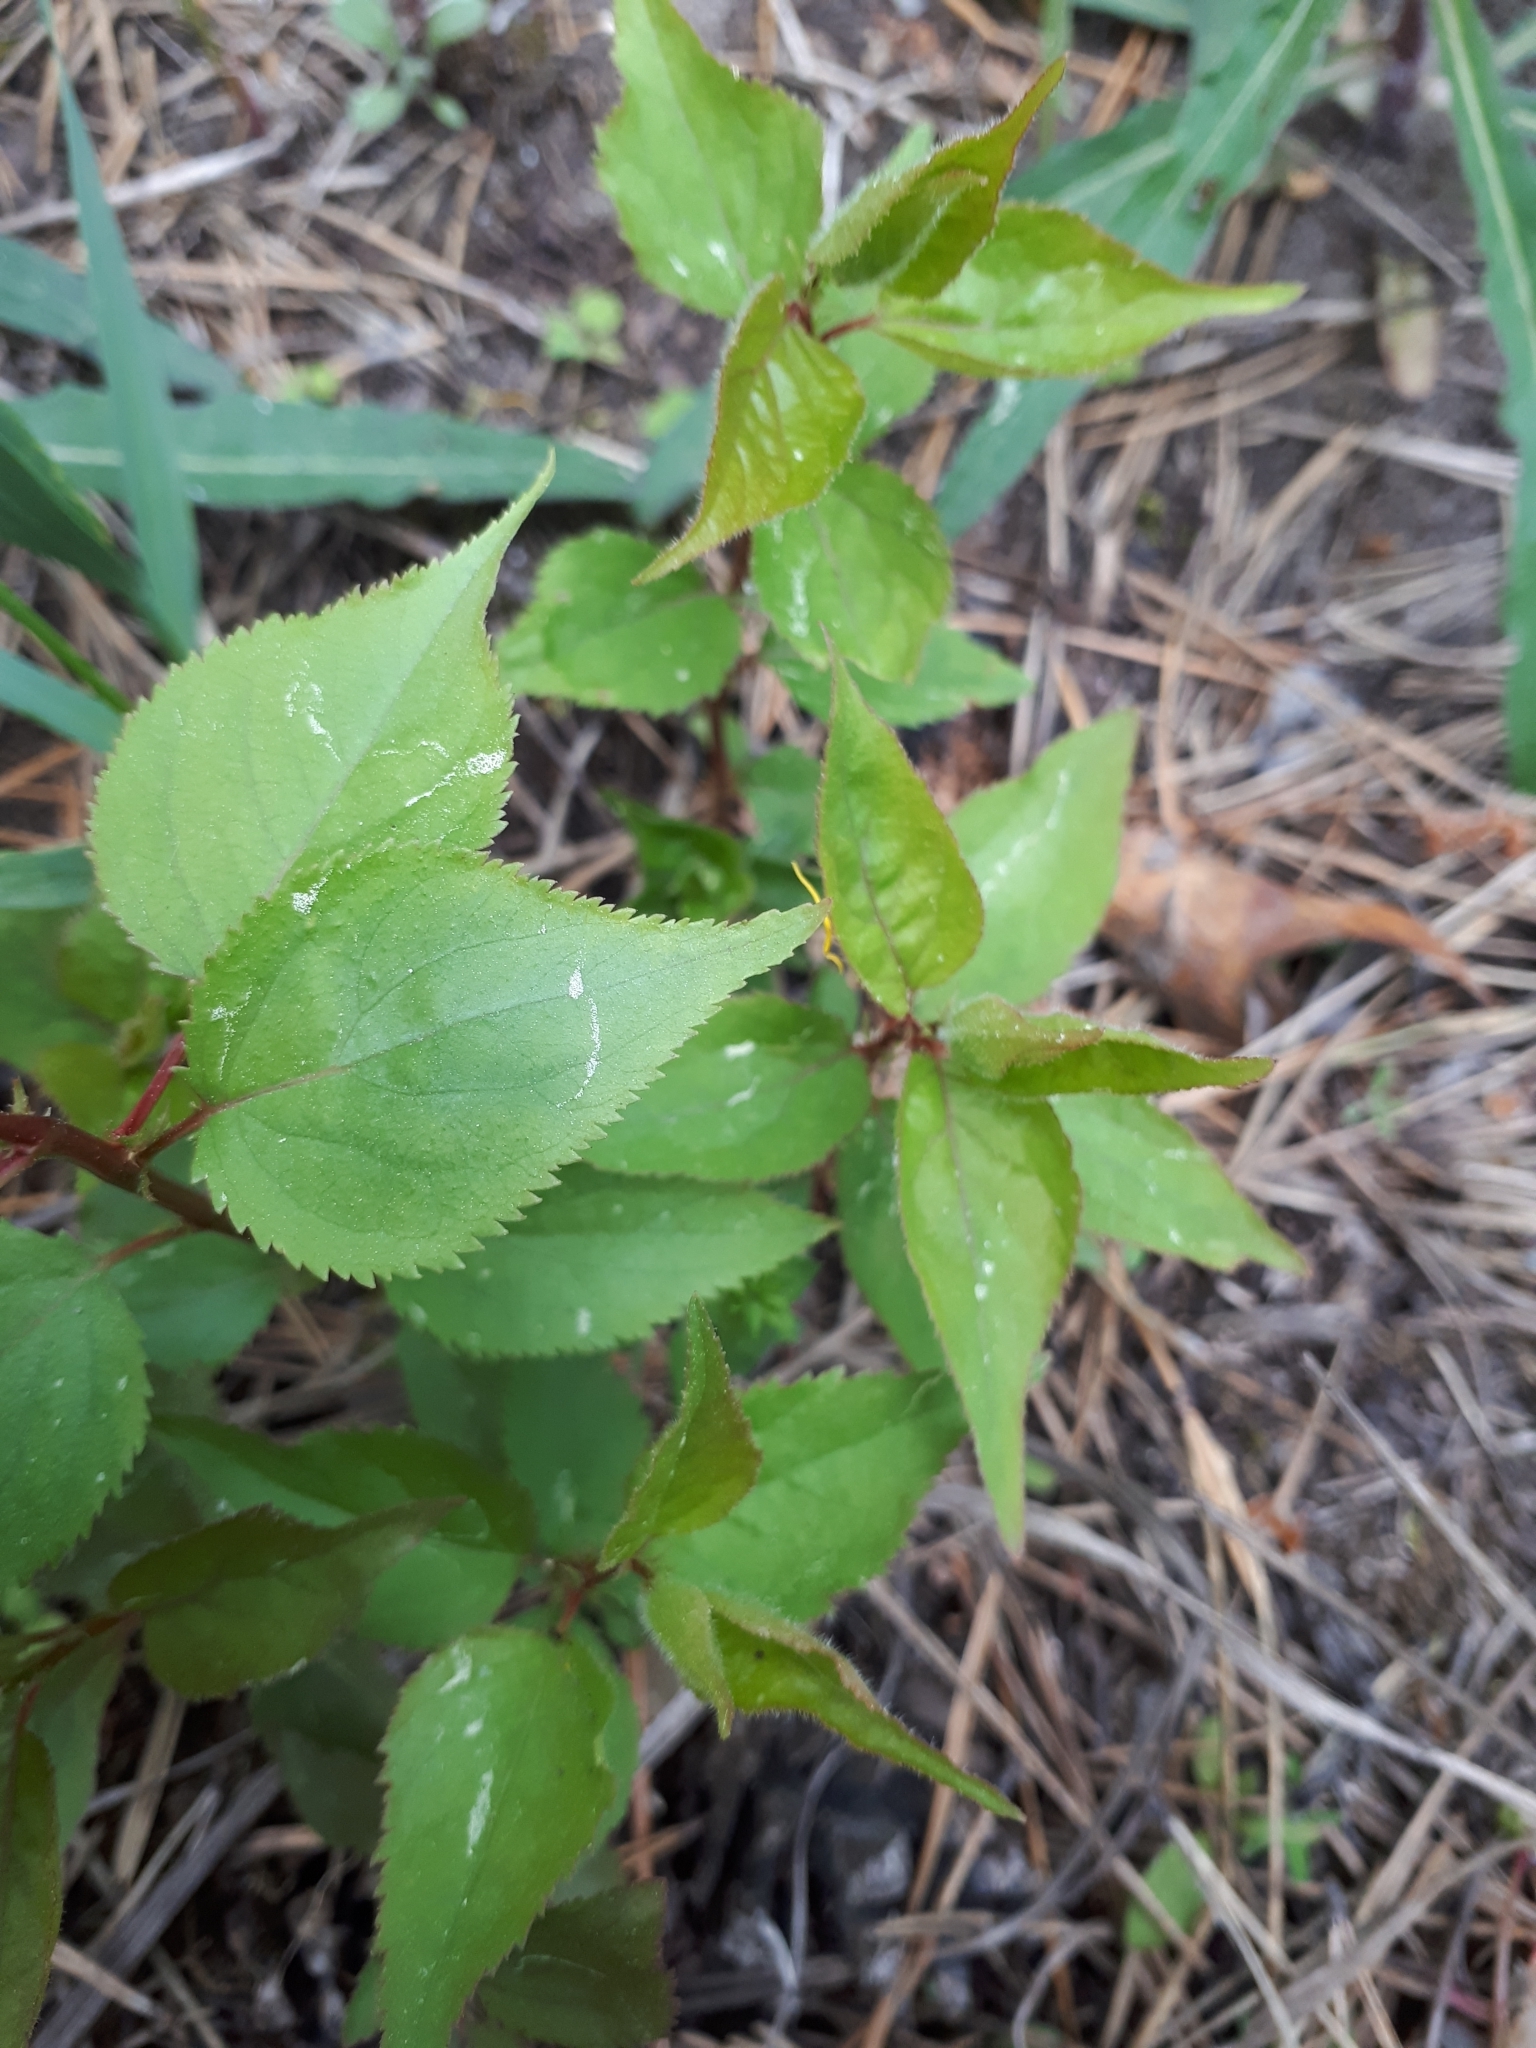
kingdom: Plantae
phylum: Tracheophyta
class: Magnoliopsida
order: Rosales
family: Rosaceae
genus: Prunus
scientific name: Prunus armeniaca
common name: Apricot
